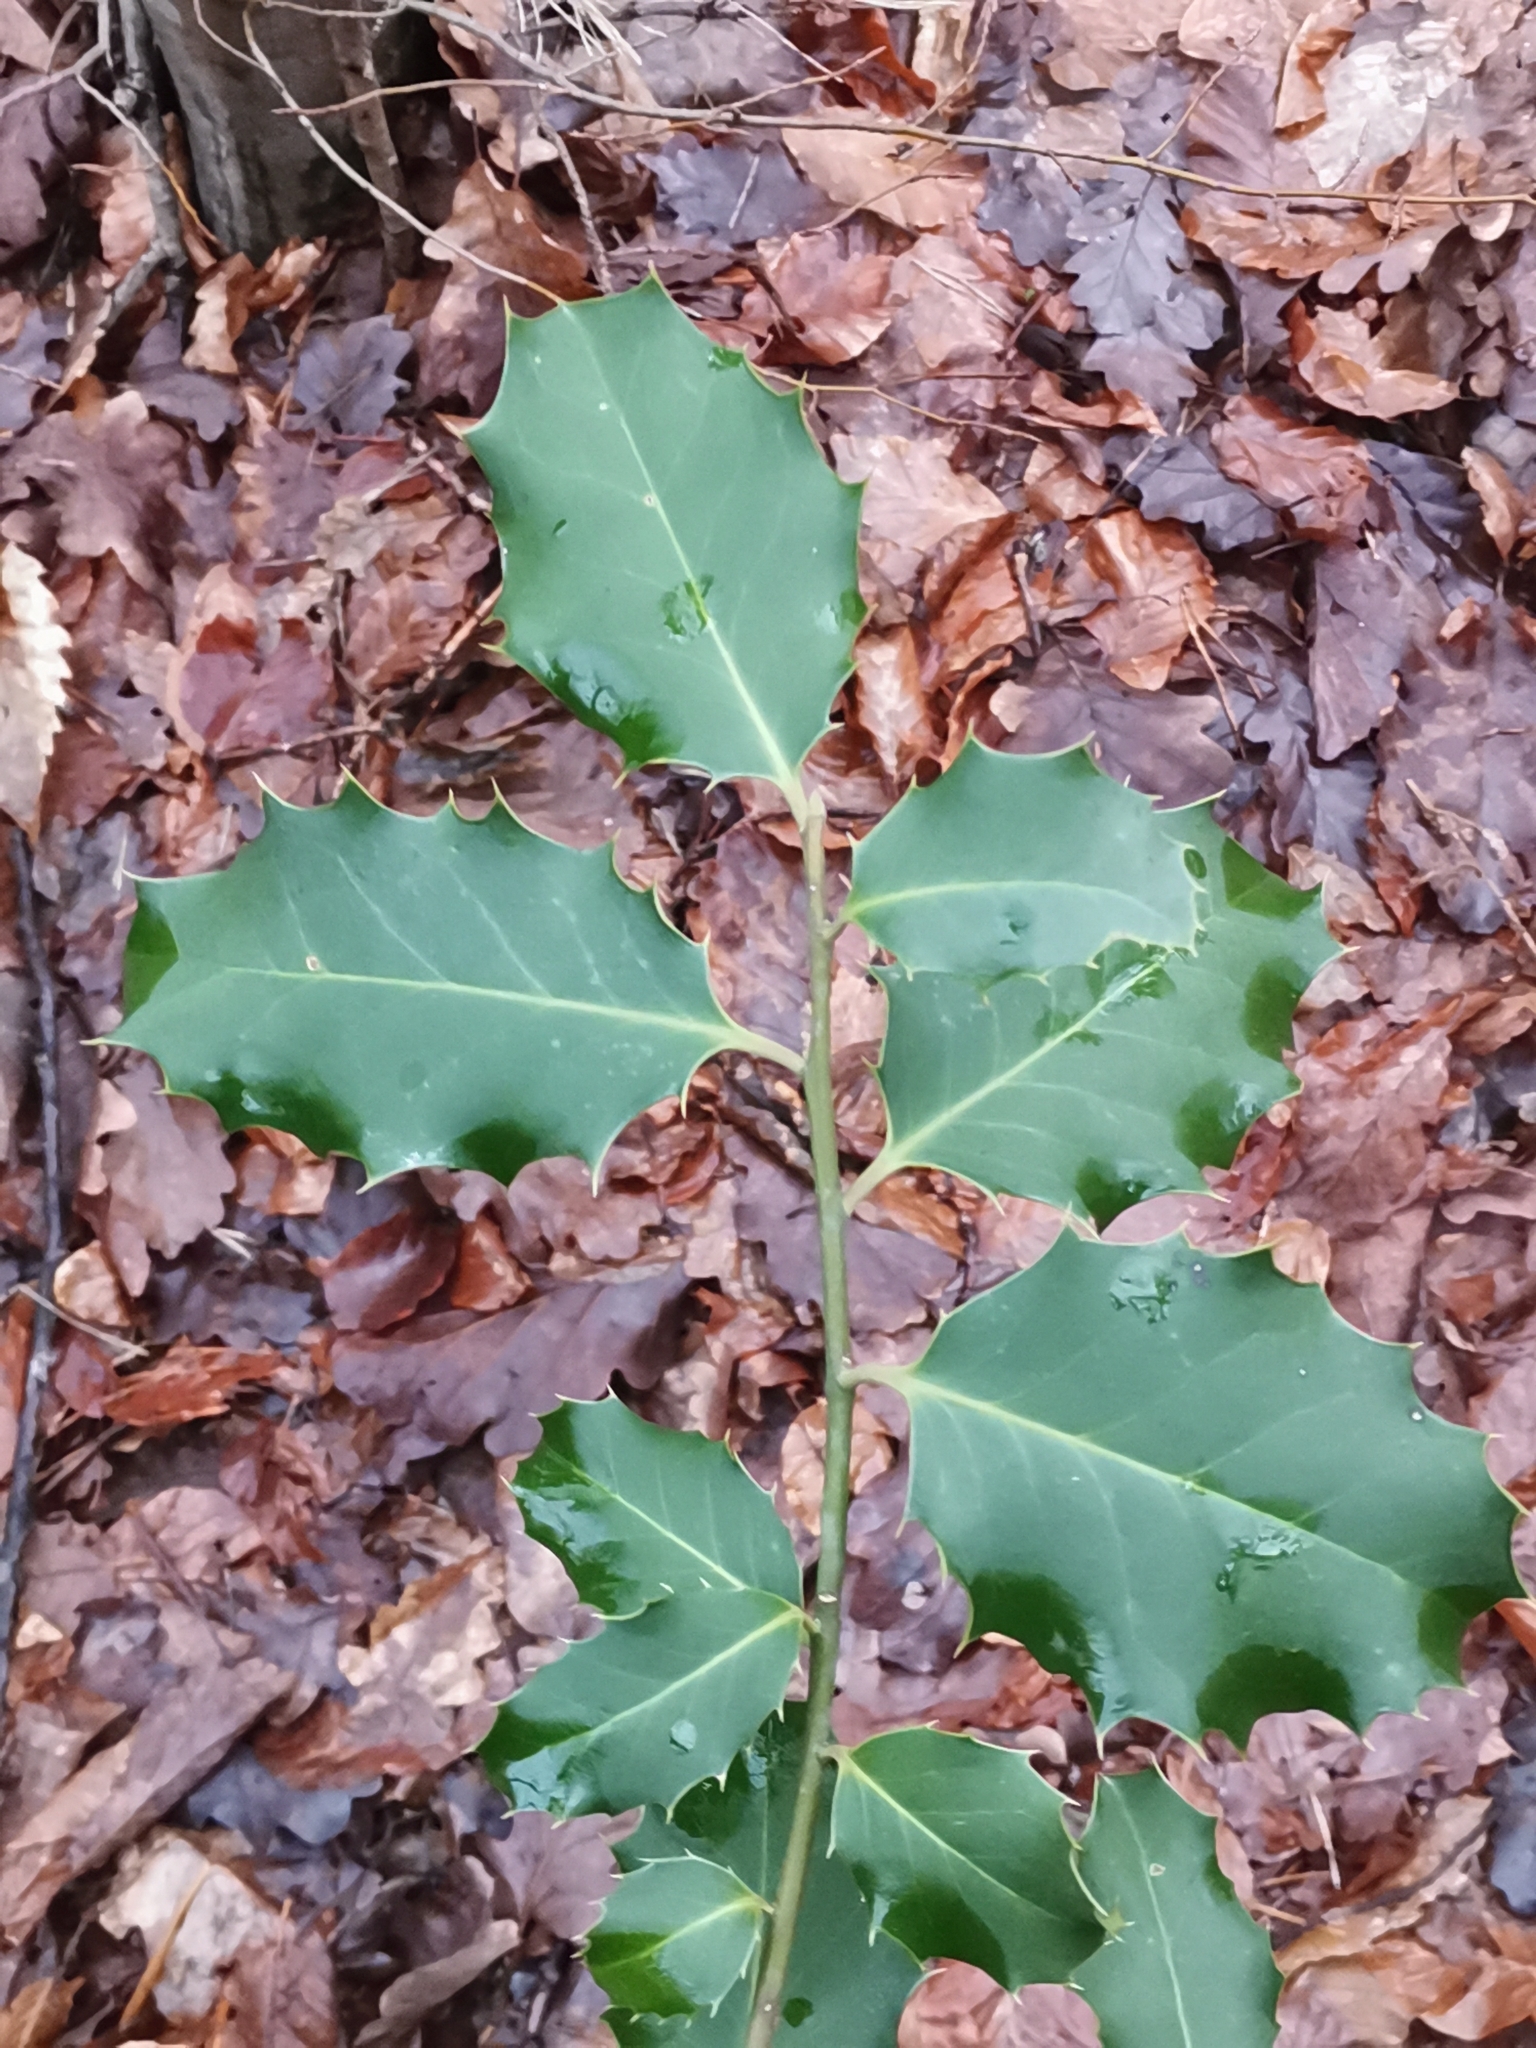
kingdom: Plantae
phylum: Tracheophyta
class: Magnoliopsida
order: Aquifoliales
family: Aquifoliaceae
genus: Ilex
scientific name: Ilex aquifolium
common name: English holly
